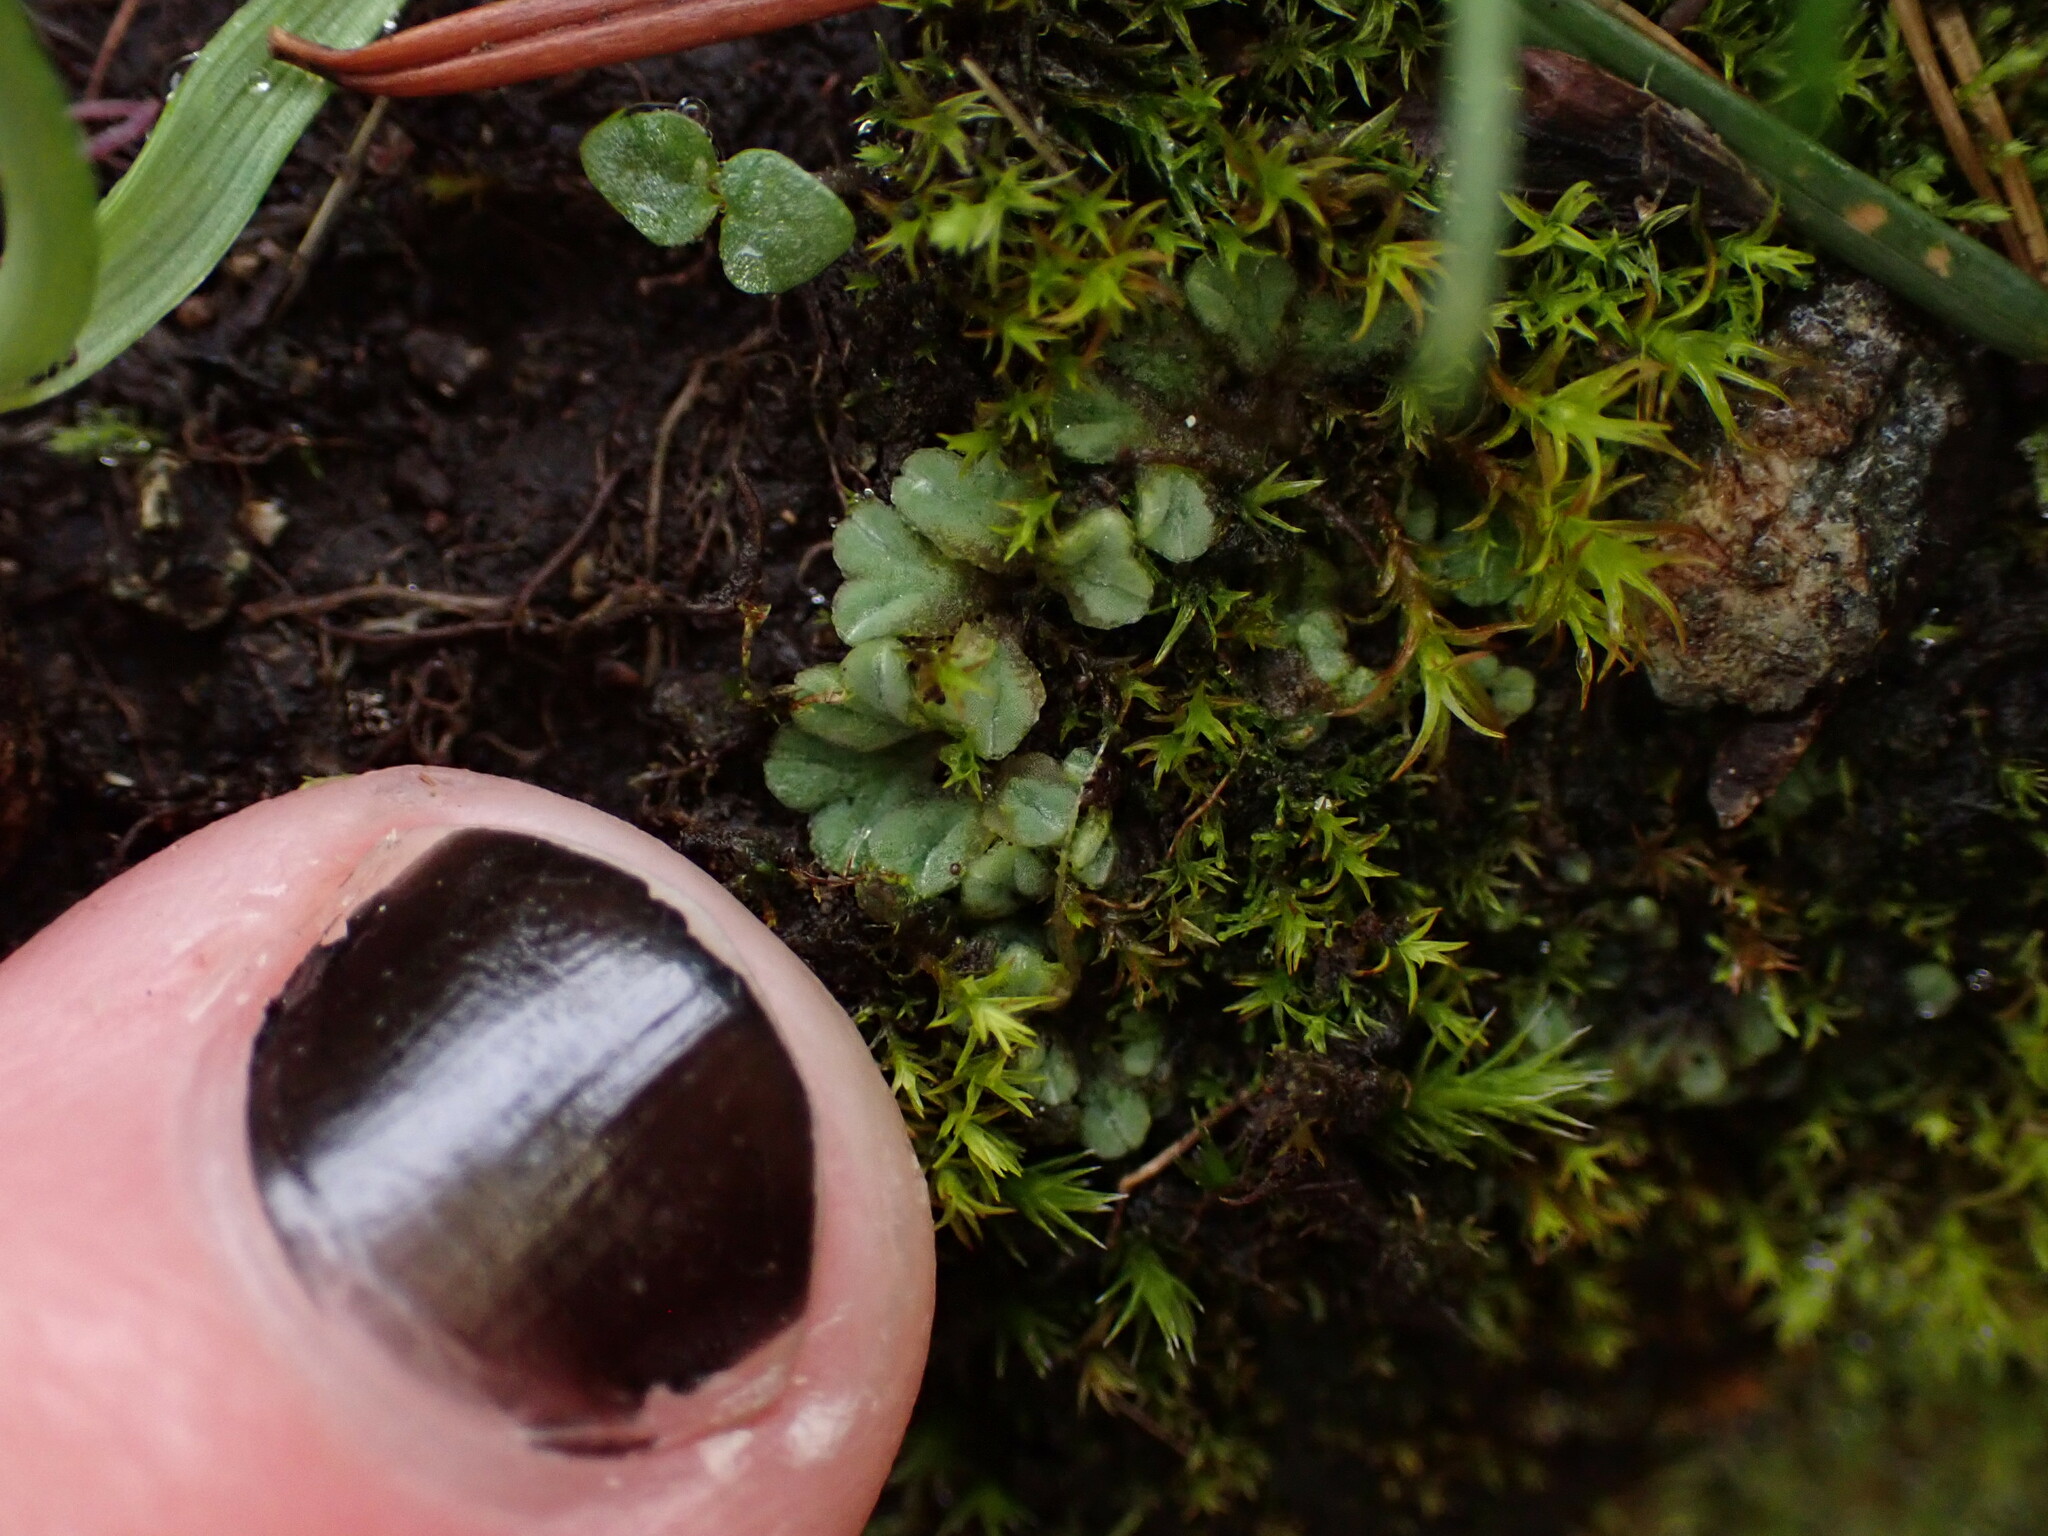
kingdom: Plantae
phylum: Marchantiophyta
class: Marchantiopsida
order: Marchantiales
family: Ricciaceae
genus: Riccia
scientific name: Riccia sorocarpa
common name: Common crystalwort
